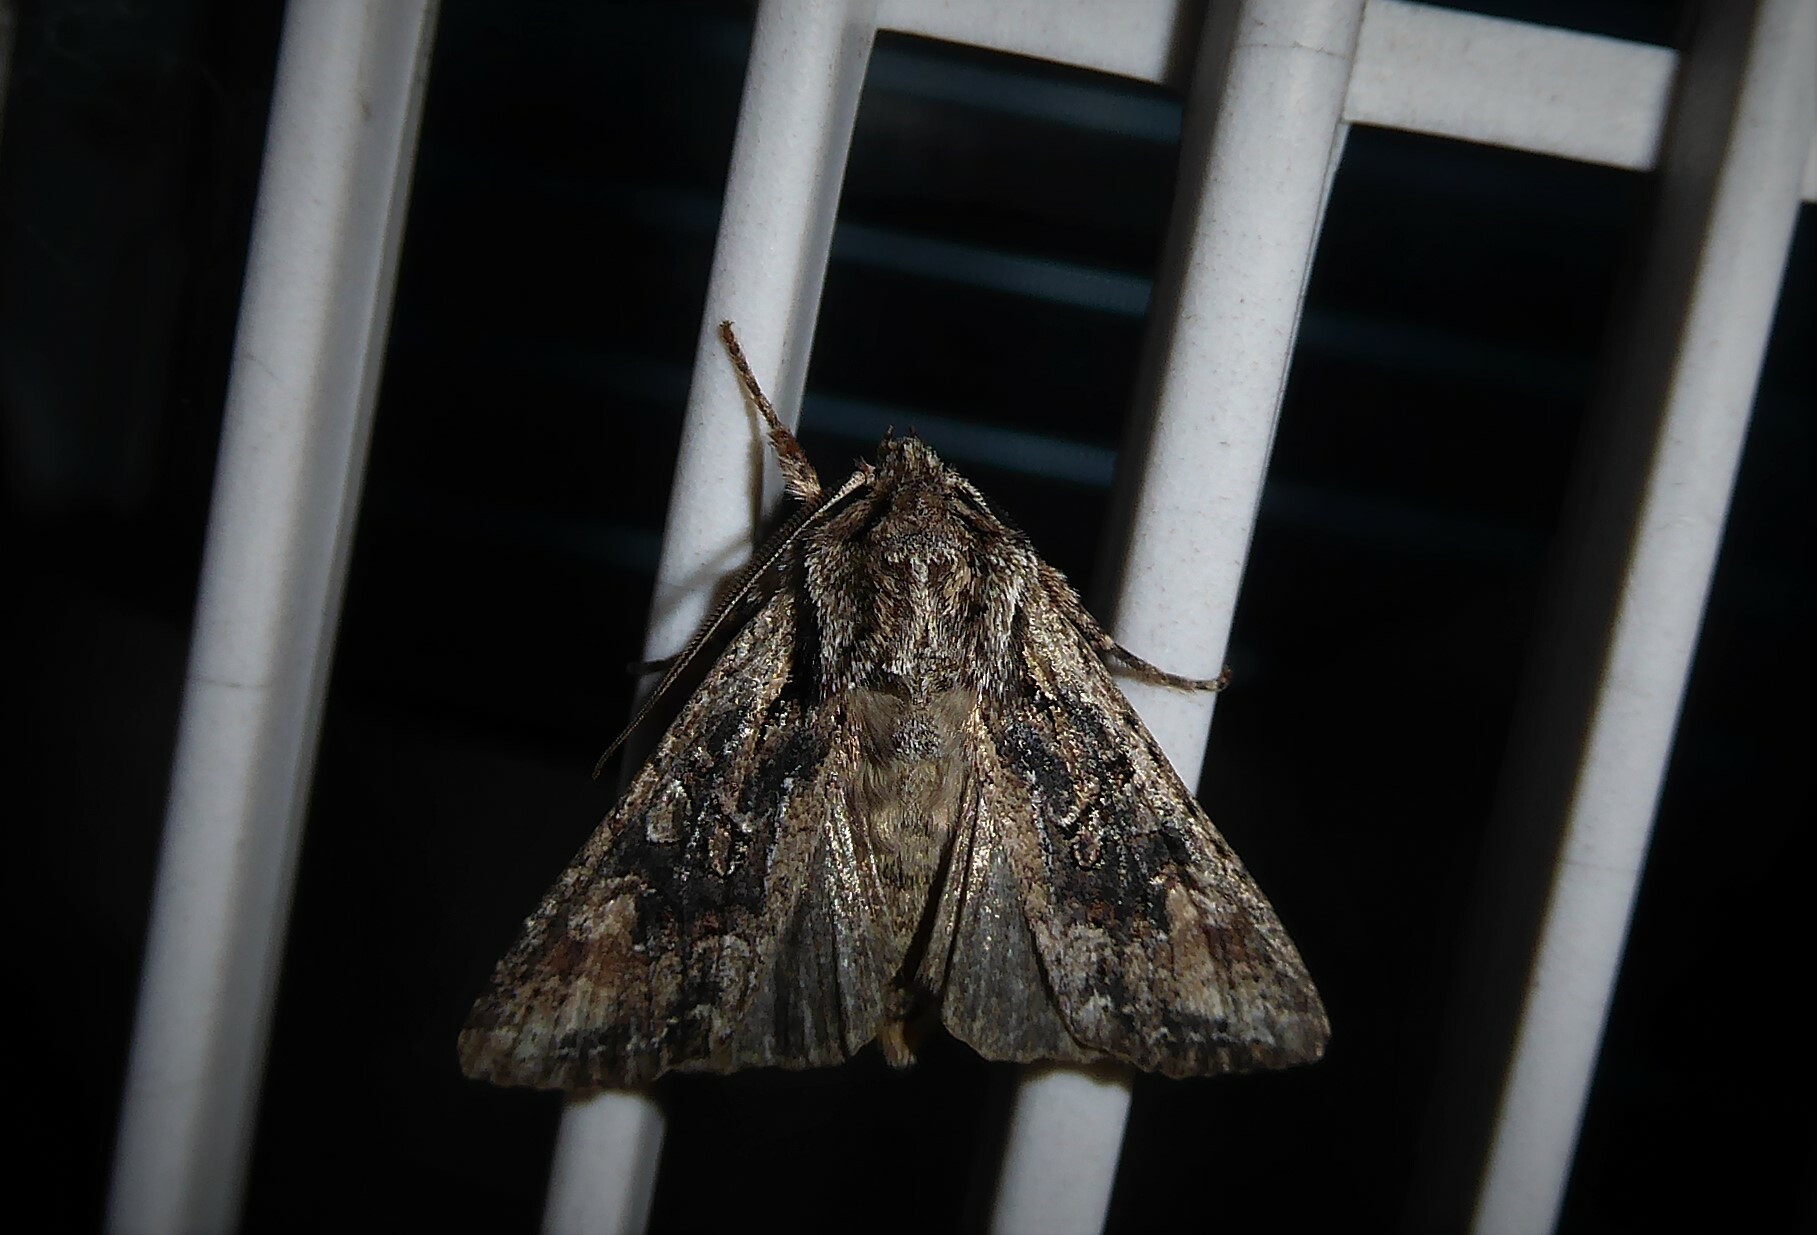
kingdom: Animalia
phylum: Arthropoda
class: Insecta
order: Lepidoptera
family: Noctuidae
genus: Ichneutica
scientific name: Ichneutica mutans
